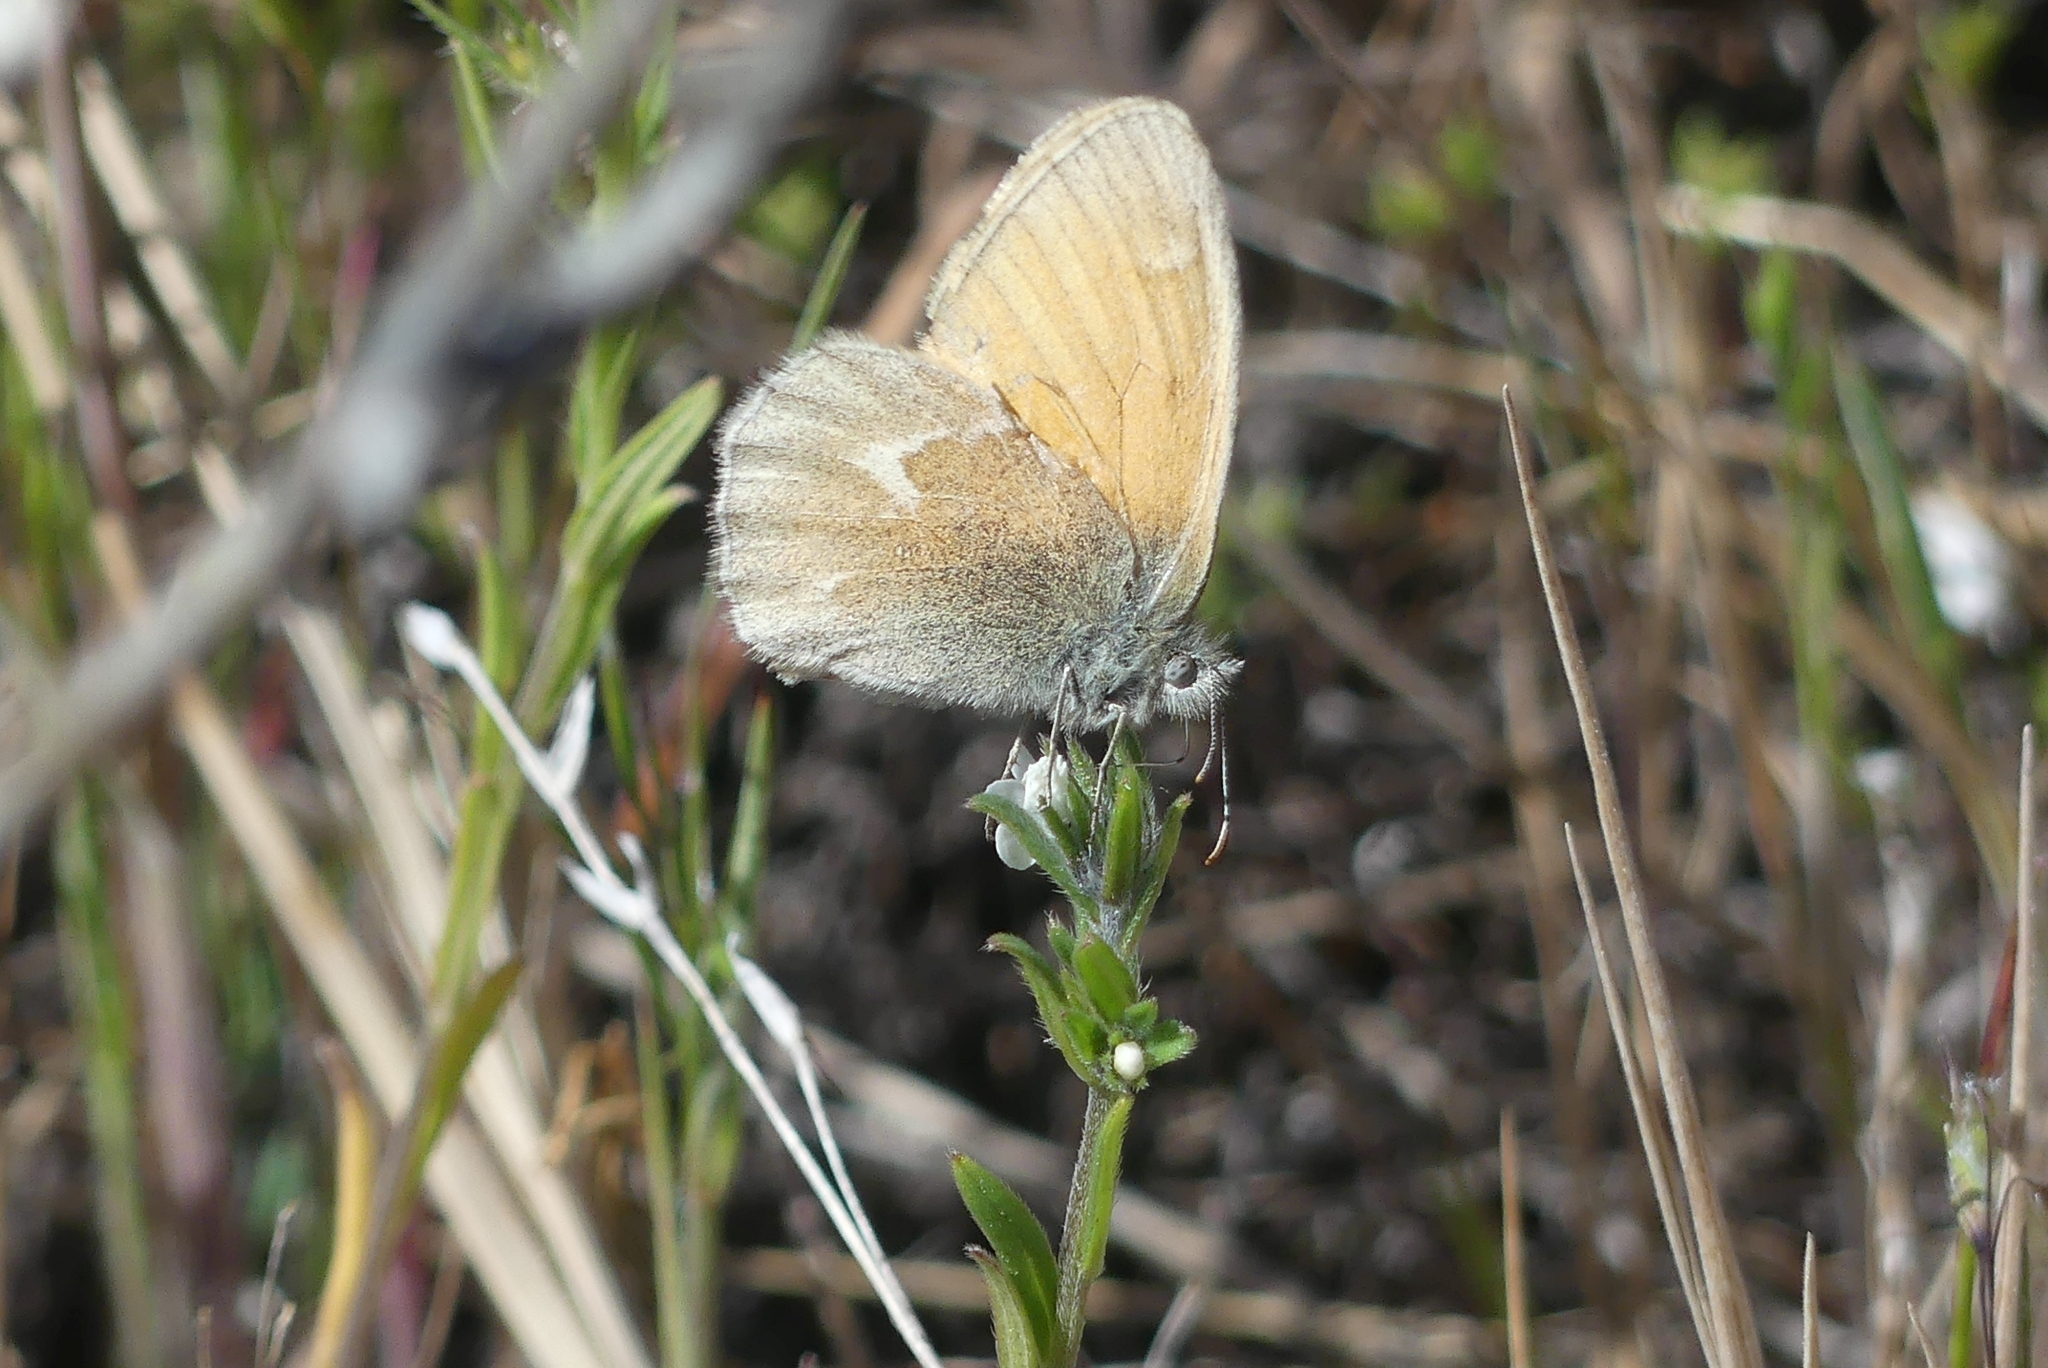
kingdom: Animalia
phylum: Arthropoda
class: Insecta
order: Lepidoptera
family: Nymphalidae
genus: Coenonympha
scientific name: Coenonympha california
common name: Common ringlet
